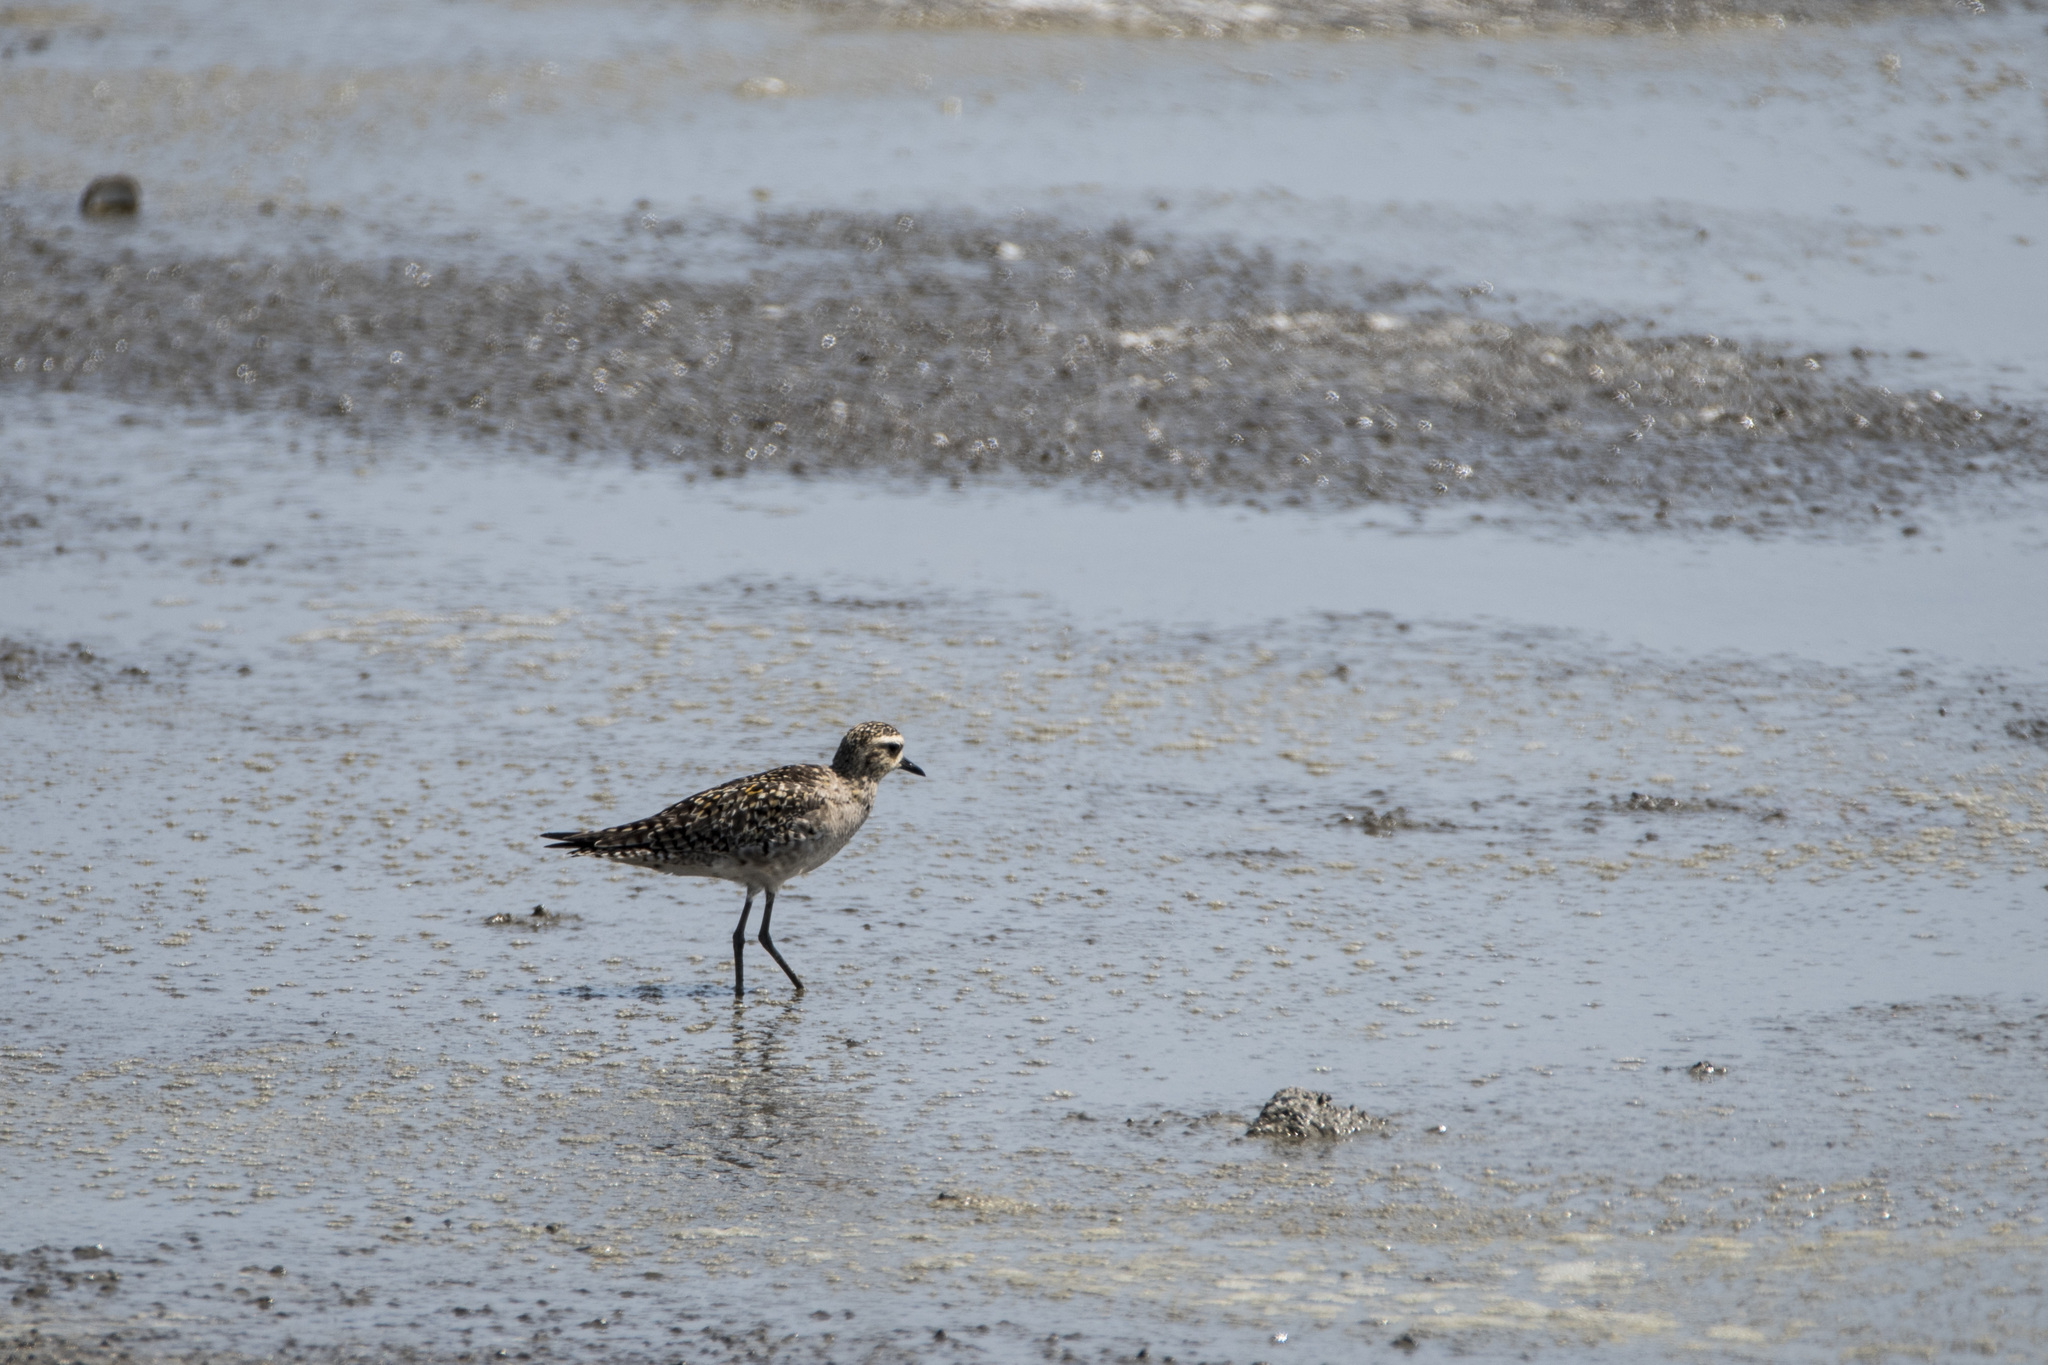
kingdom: Animalia
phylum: Chordata
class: Aves
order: Charadriiformes
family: Charadriidae
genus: Pluvialis
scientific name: Pluvialis fulva
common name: Pacific golden plover
